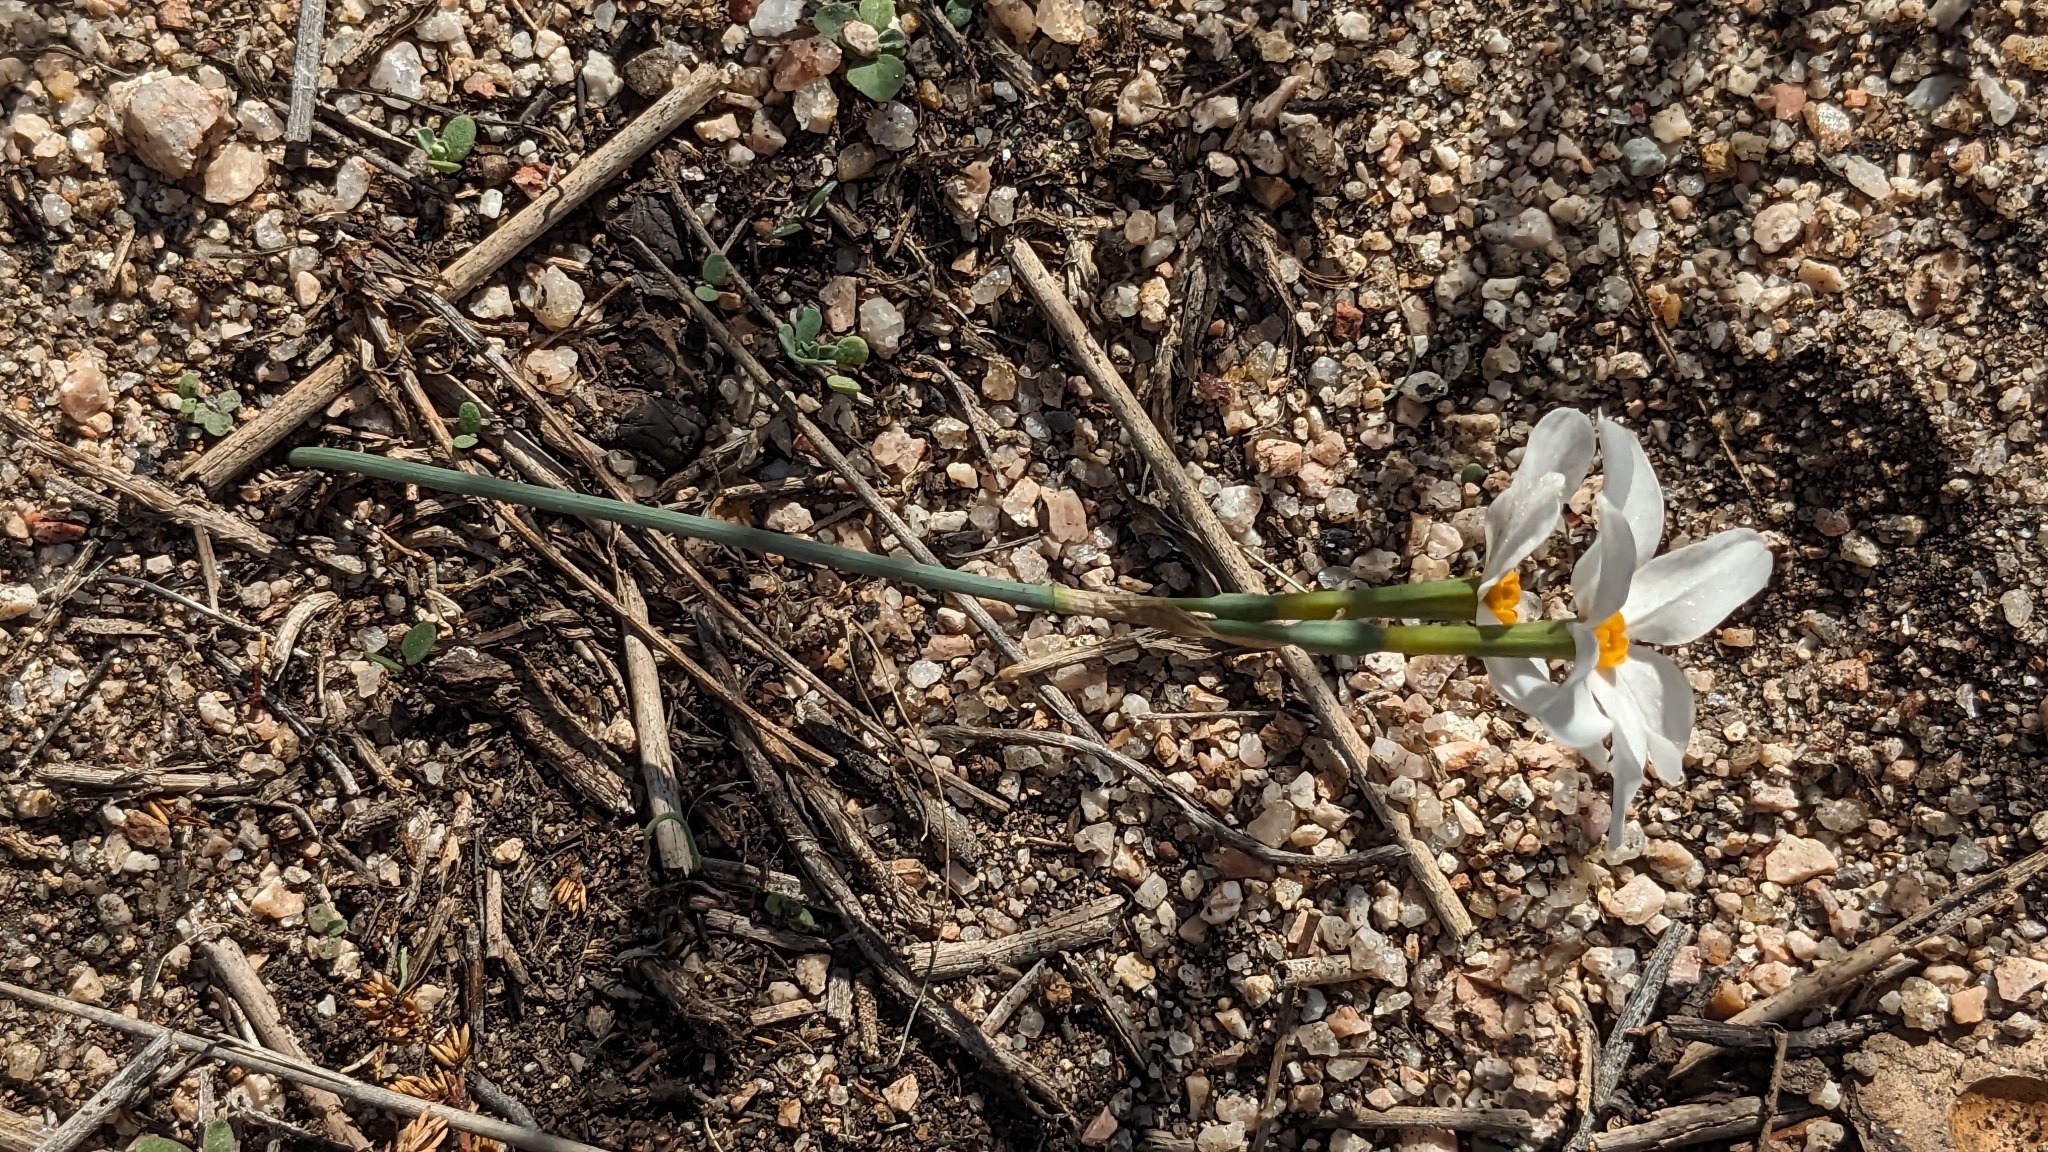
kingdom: Plantae
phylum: Tracheophyta
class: Liliopsida
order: Asparagales
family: Amaryllidaceae
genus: Narcissus
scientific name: Narcissus deficiens
